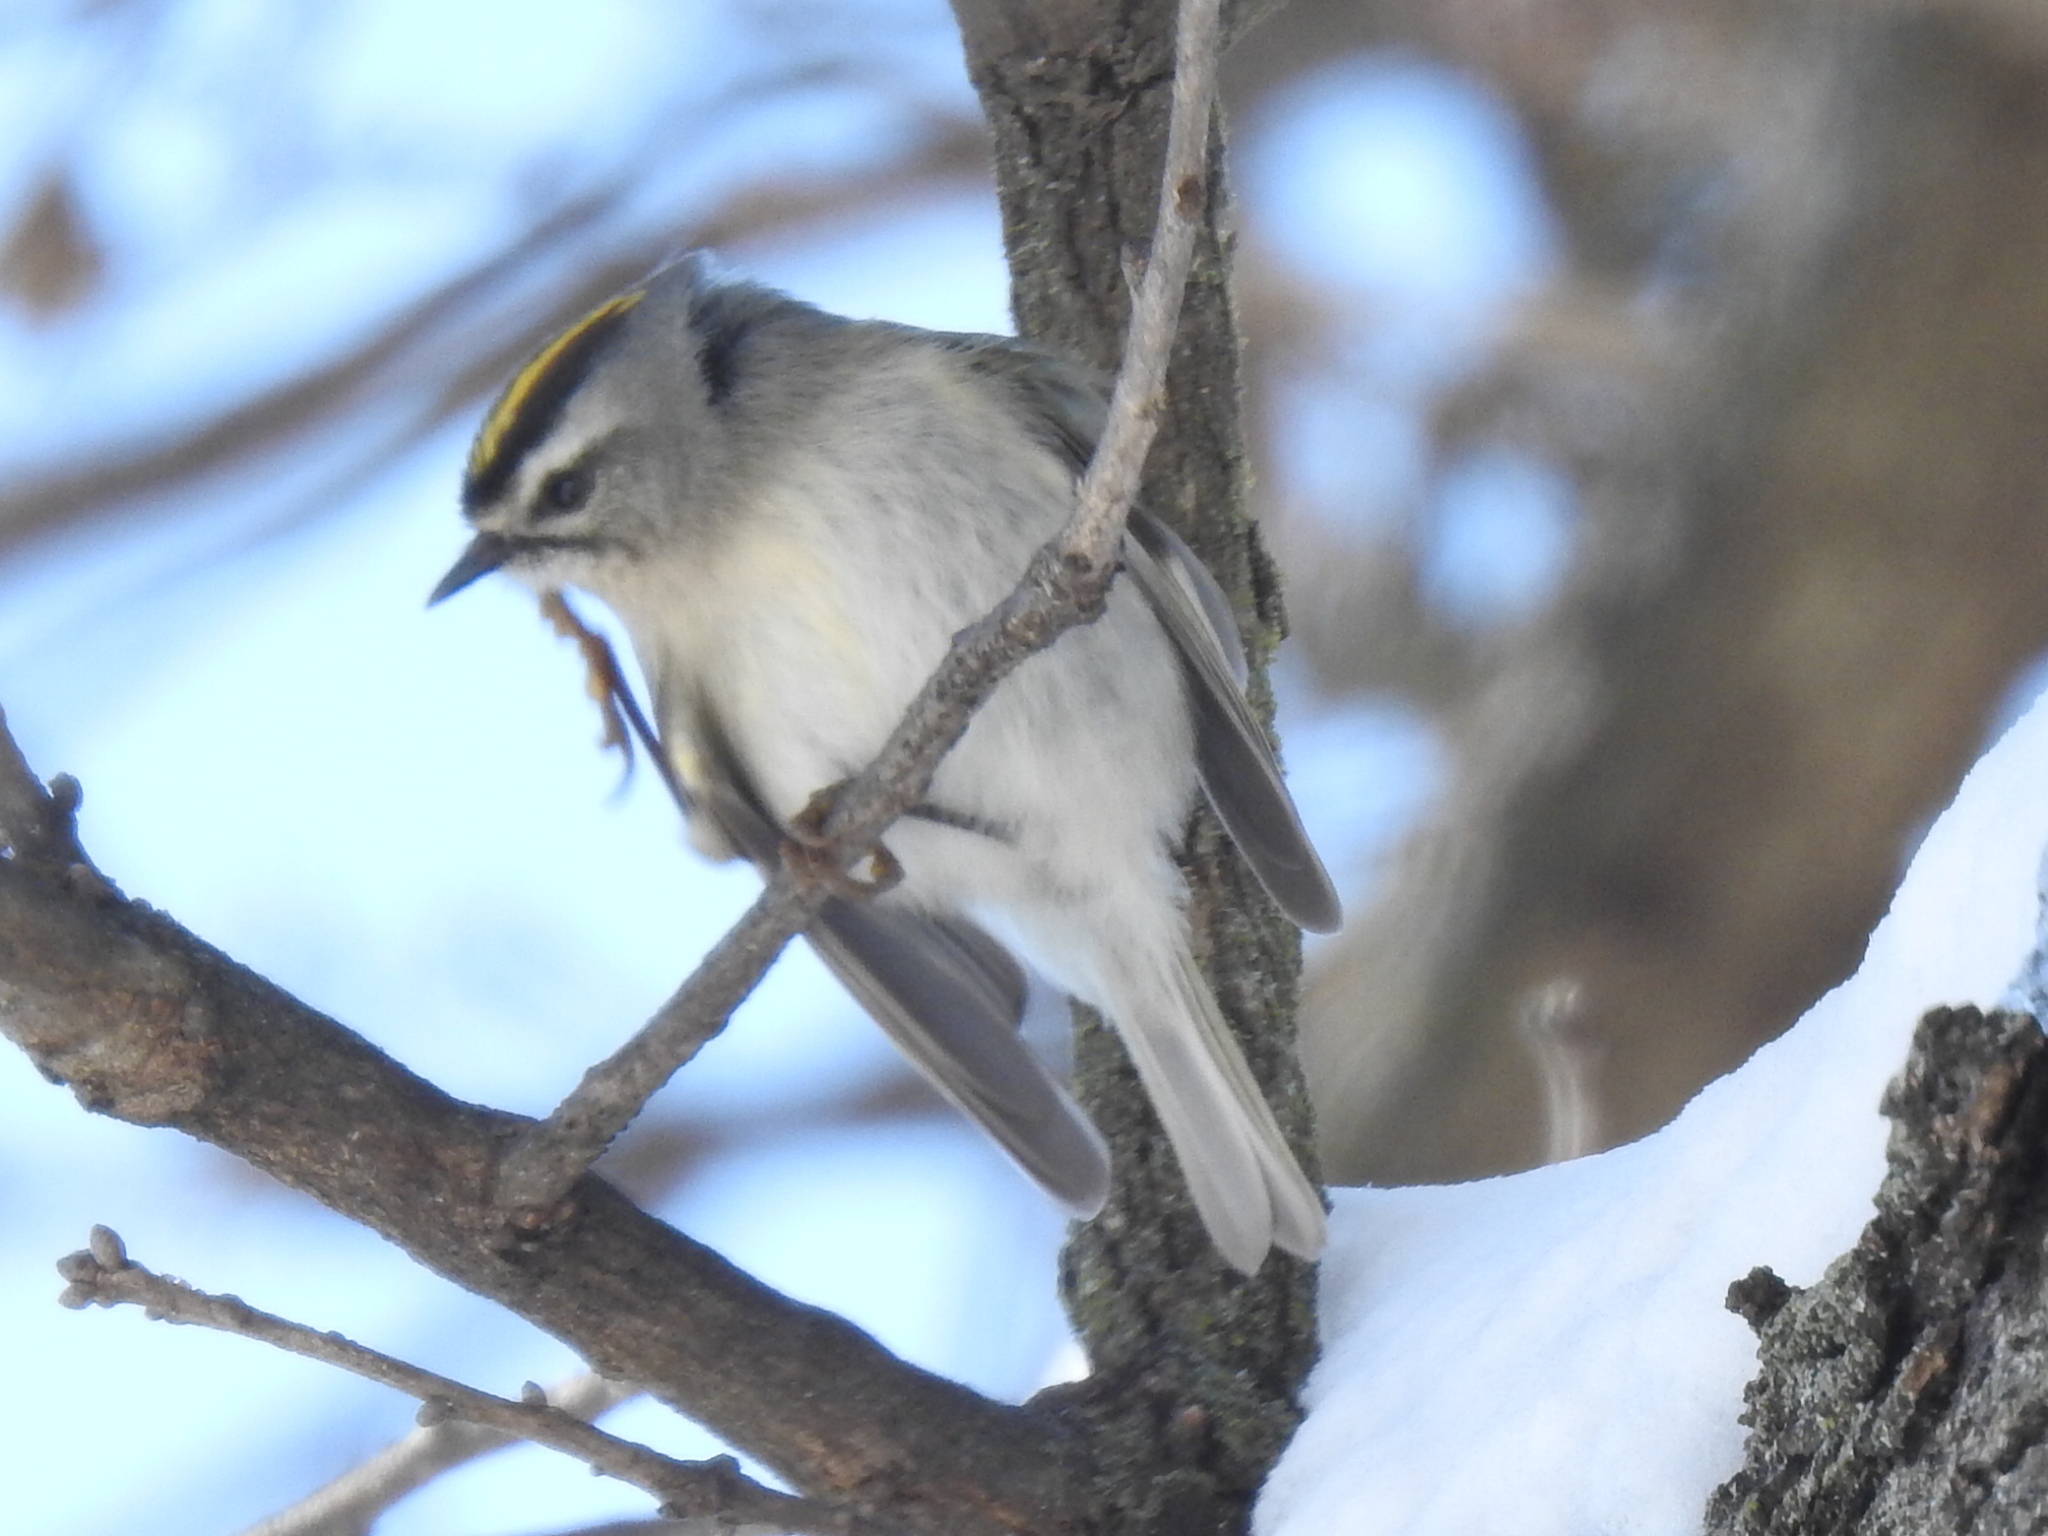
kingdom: Animalia
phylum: Chordata
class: Aves
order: Passeriformes
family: Regulidae
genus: Regulus
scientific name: Regulus satrapa
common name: Golden-crowned kinglet
